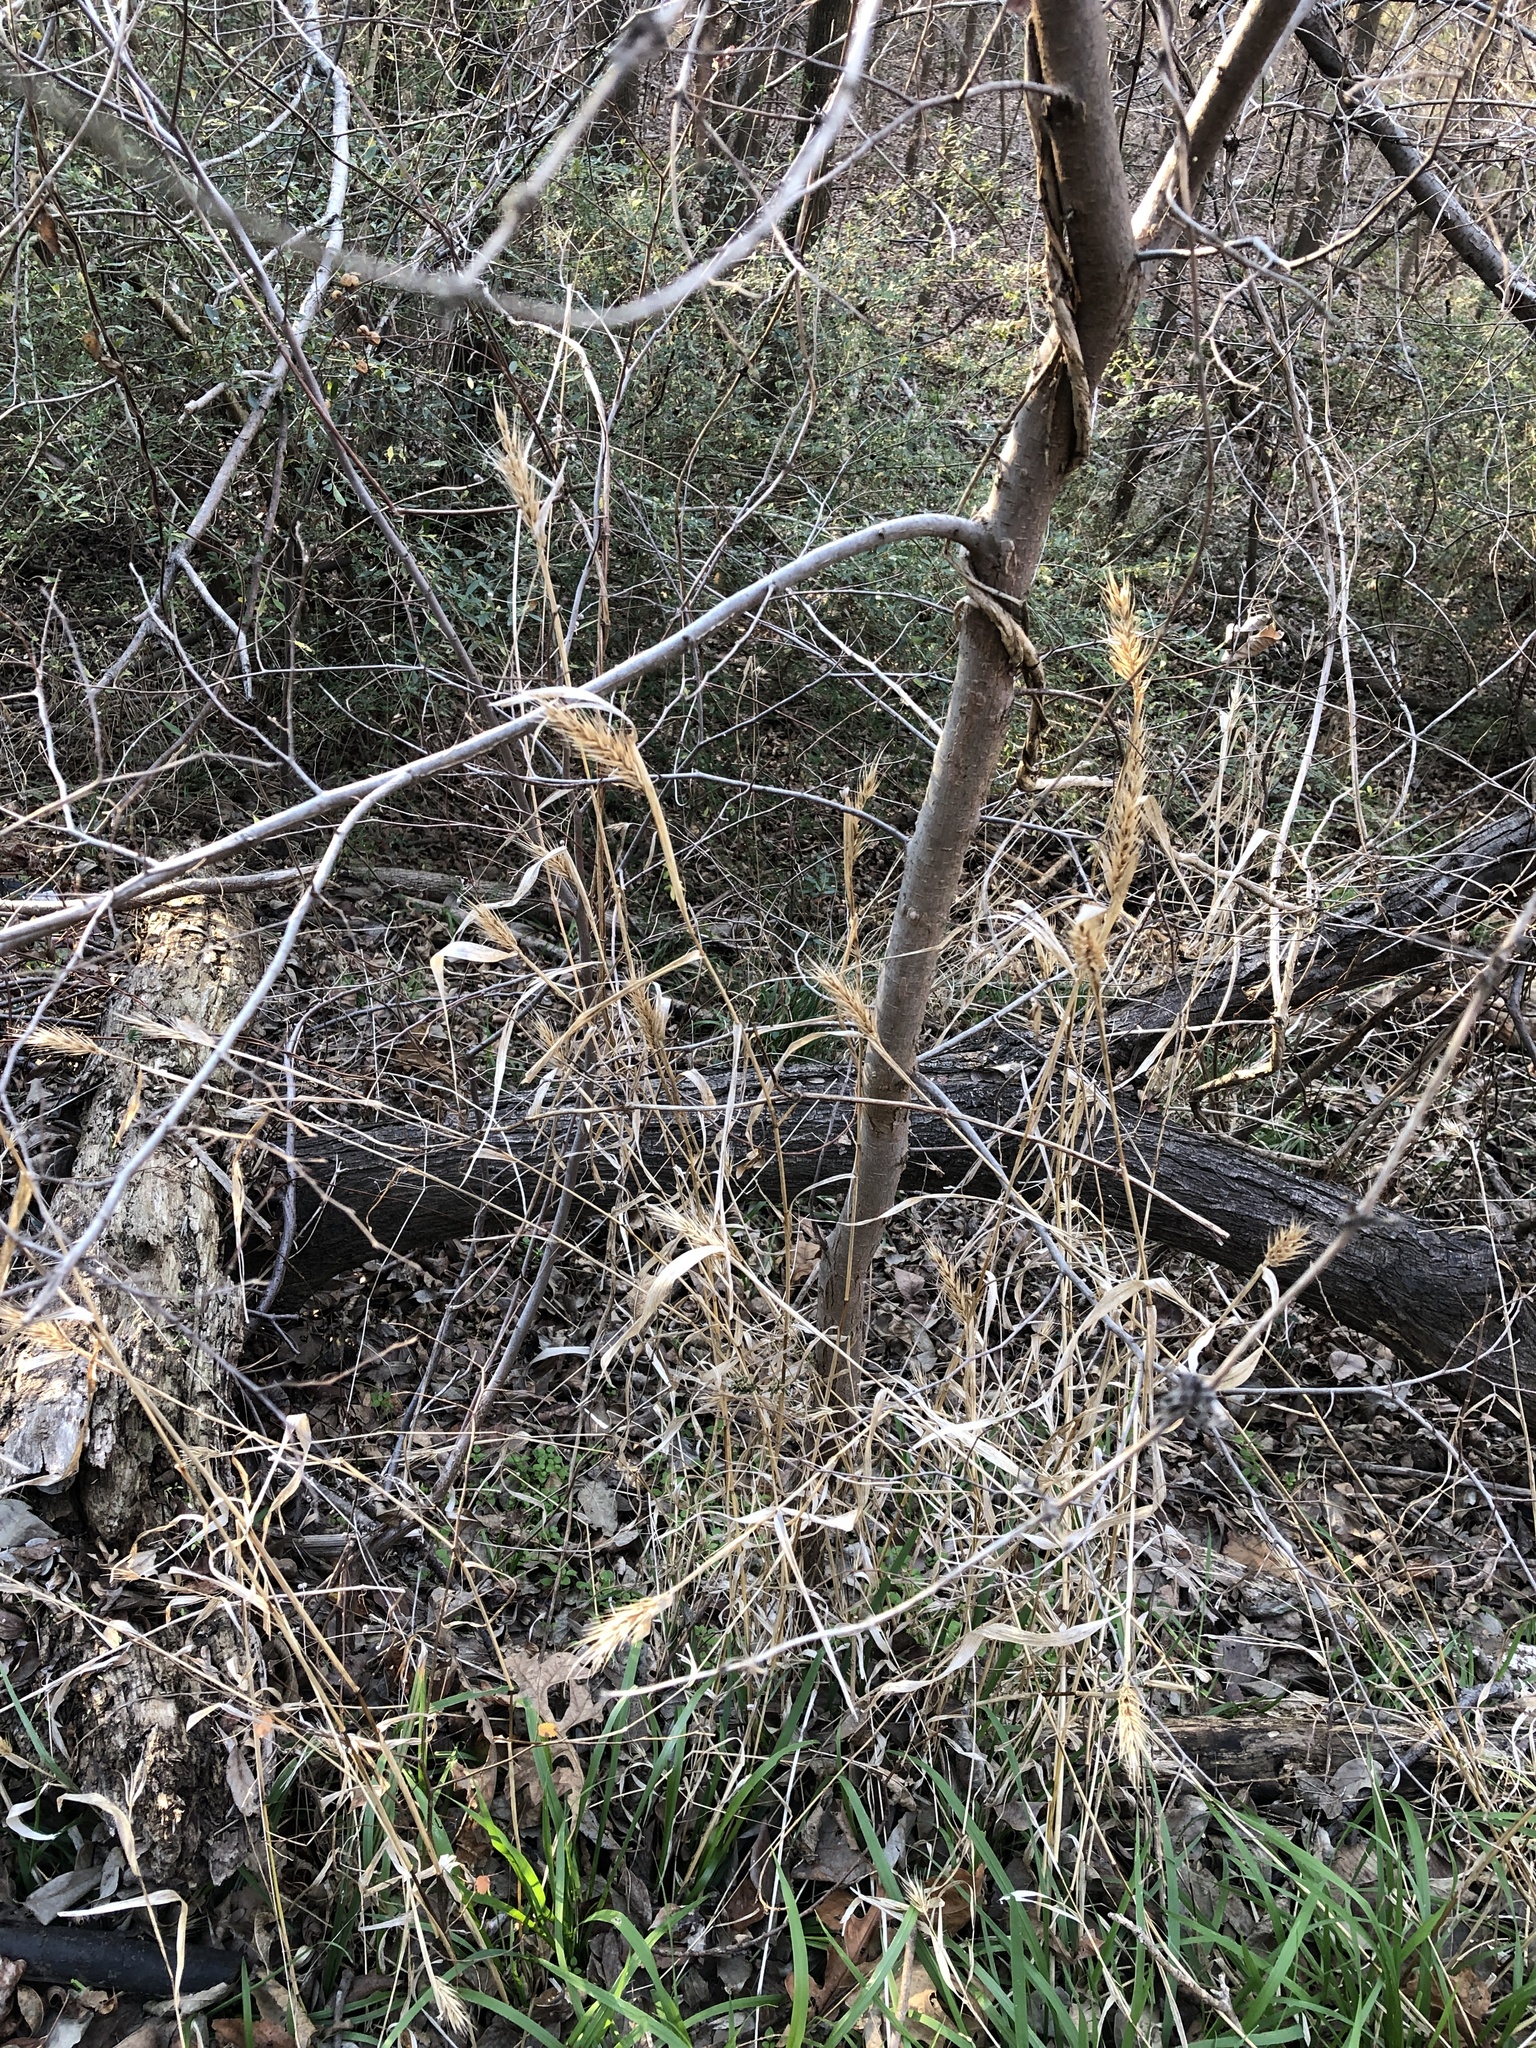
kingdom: Plantae
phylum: Tracheophyta
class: Liliopsida
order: Poales
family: Poaceae
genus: Elymus
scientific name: Elymus virginicus
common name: Common eastern wildrye
